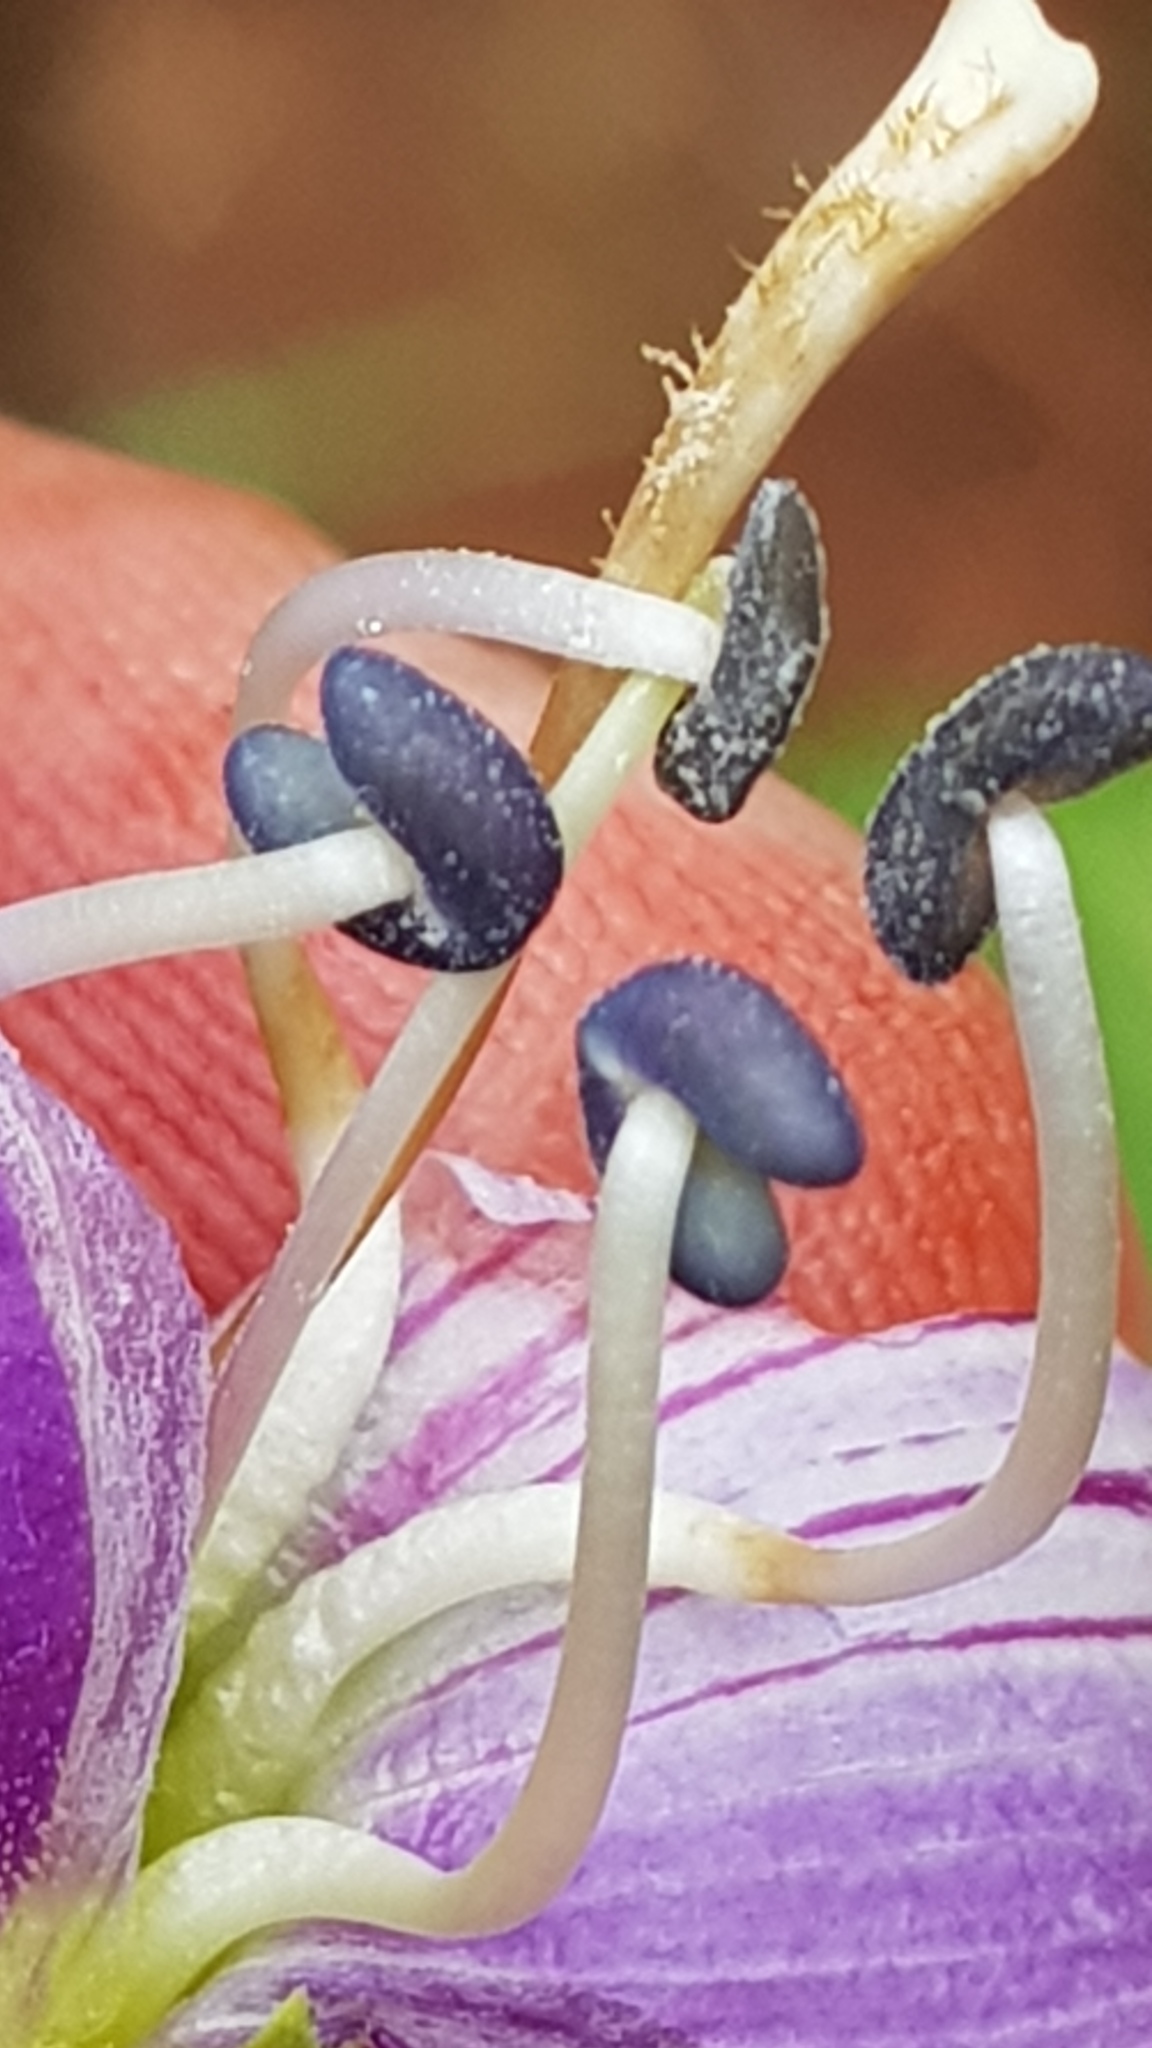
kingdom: Plantae
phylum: Tracheophyta
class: Magnoliopsida
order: Lamiales
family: Plantaginaceae
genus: Penstemon
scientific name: Penstemon gentianoides
